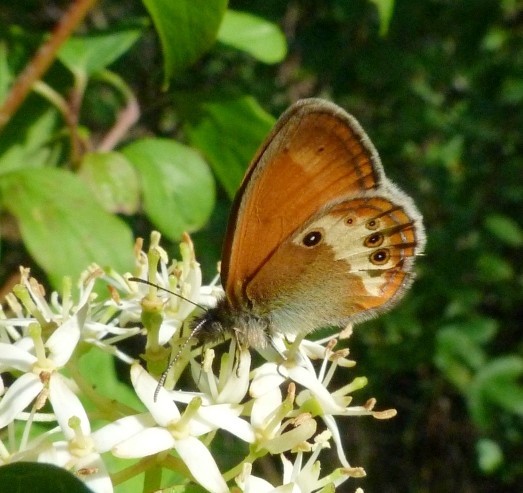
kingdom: Animalia
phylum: Arthropoda
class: Insecta
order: Lepidoptera
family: Nymphalidae
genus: Coenonympha
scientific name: Coenonympha arcania
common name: Pearly heath
